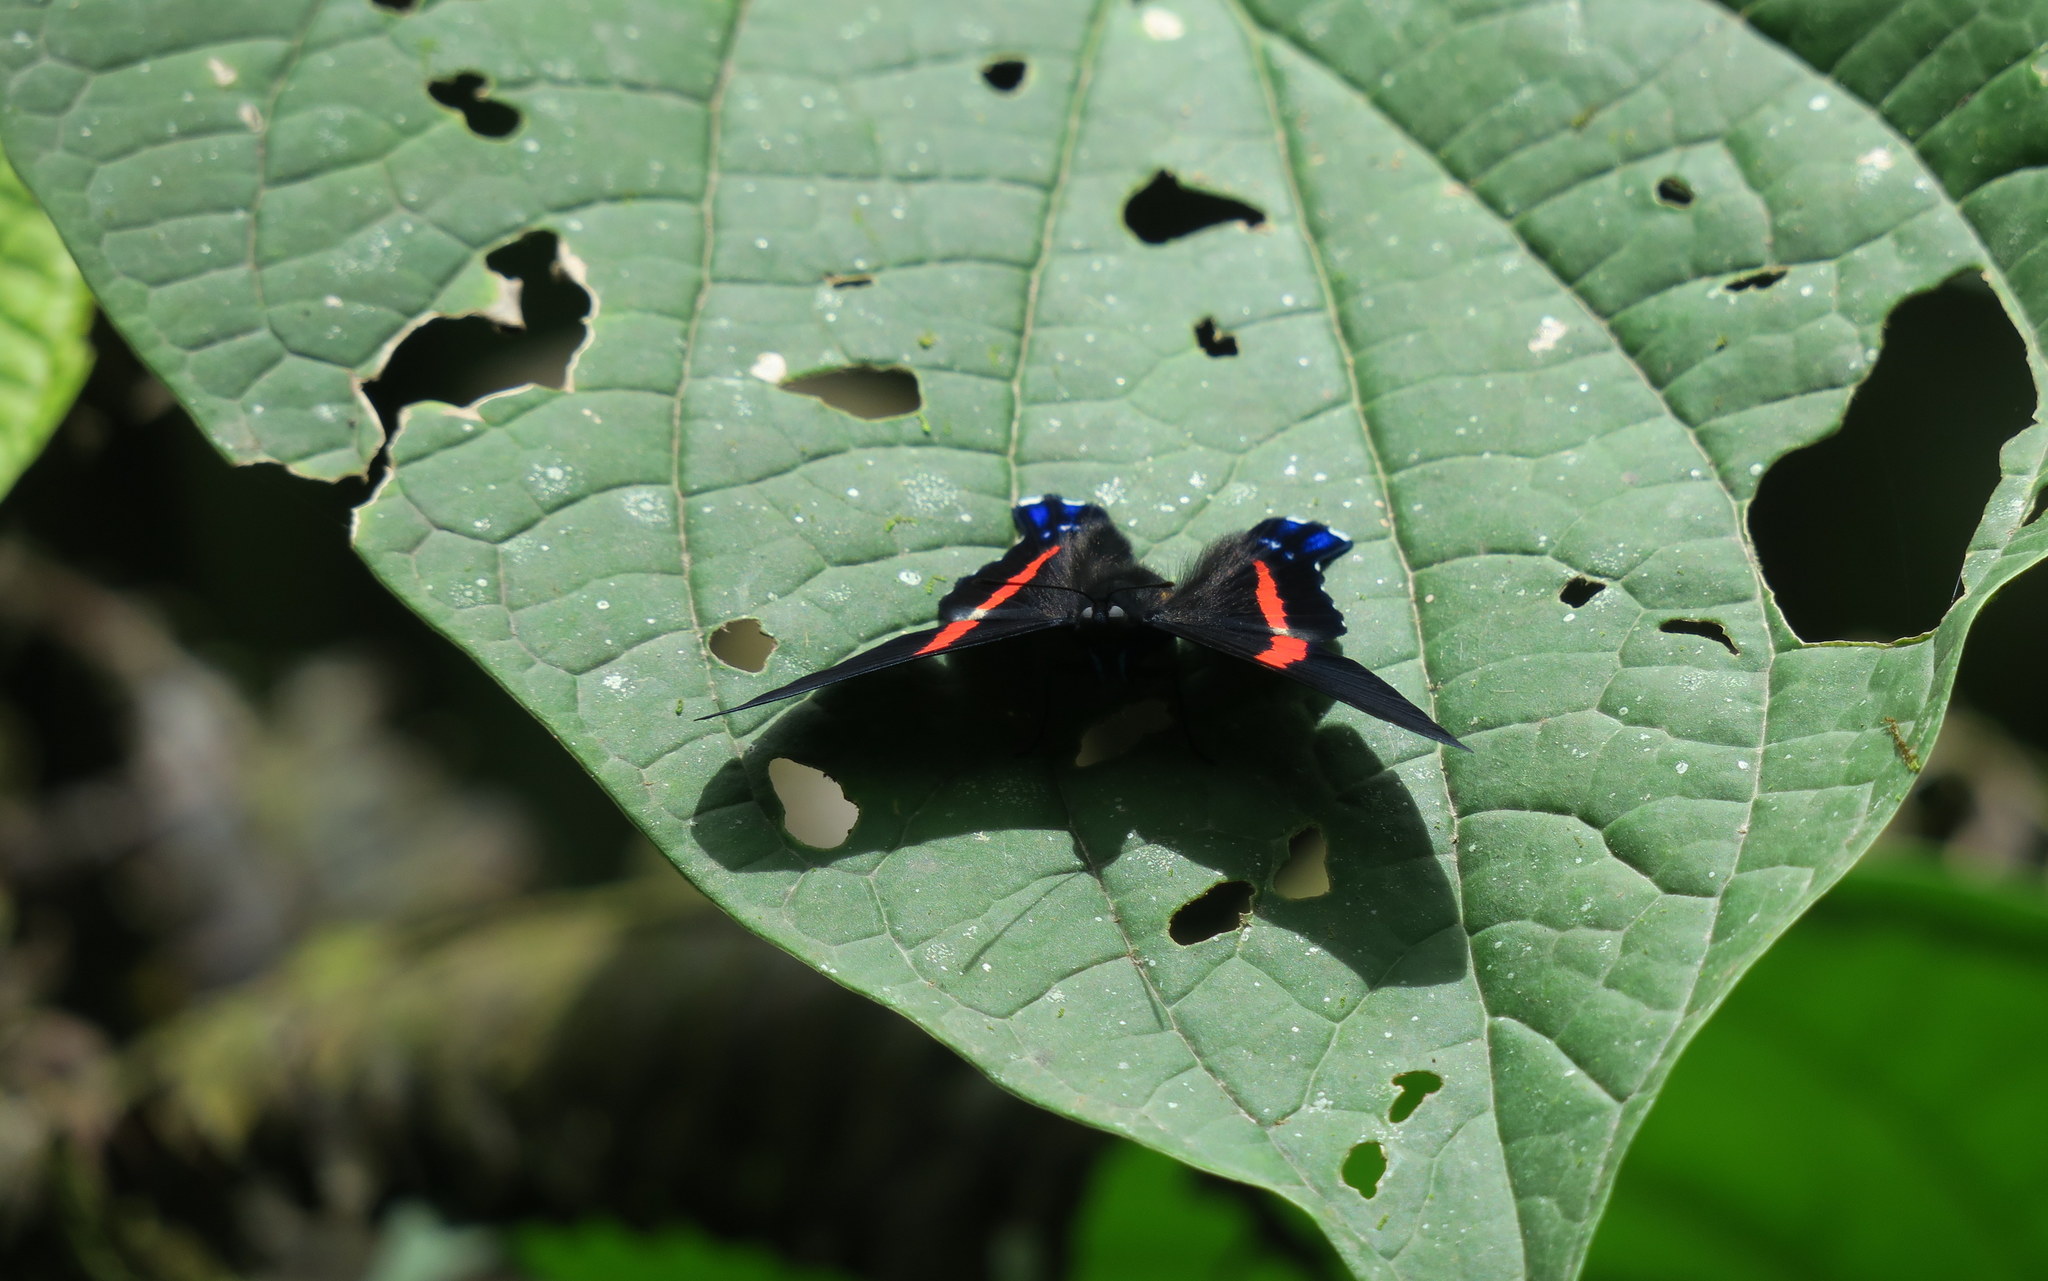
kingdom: Animalia
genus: Ancyluris
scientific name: Ancyluris inca
